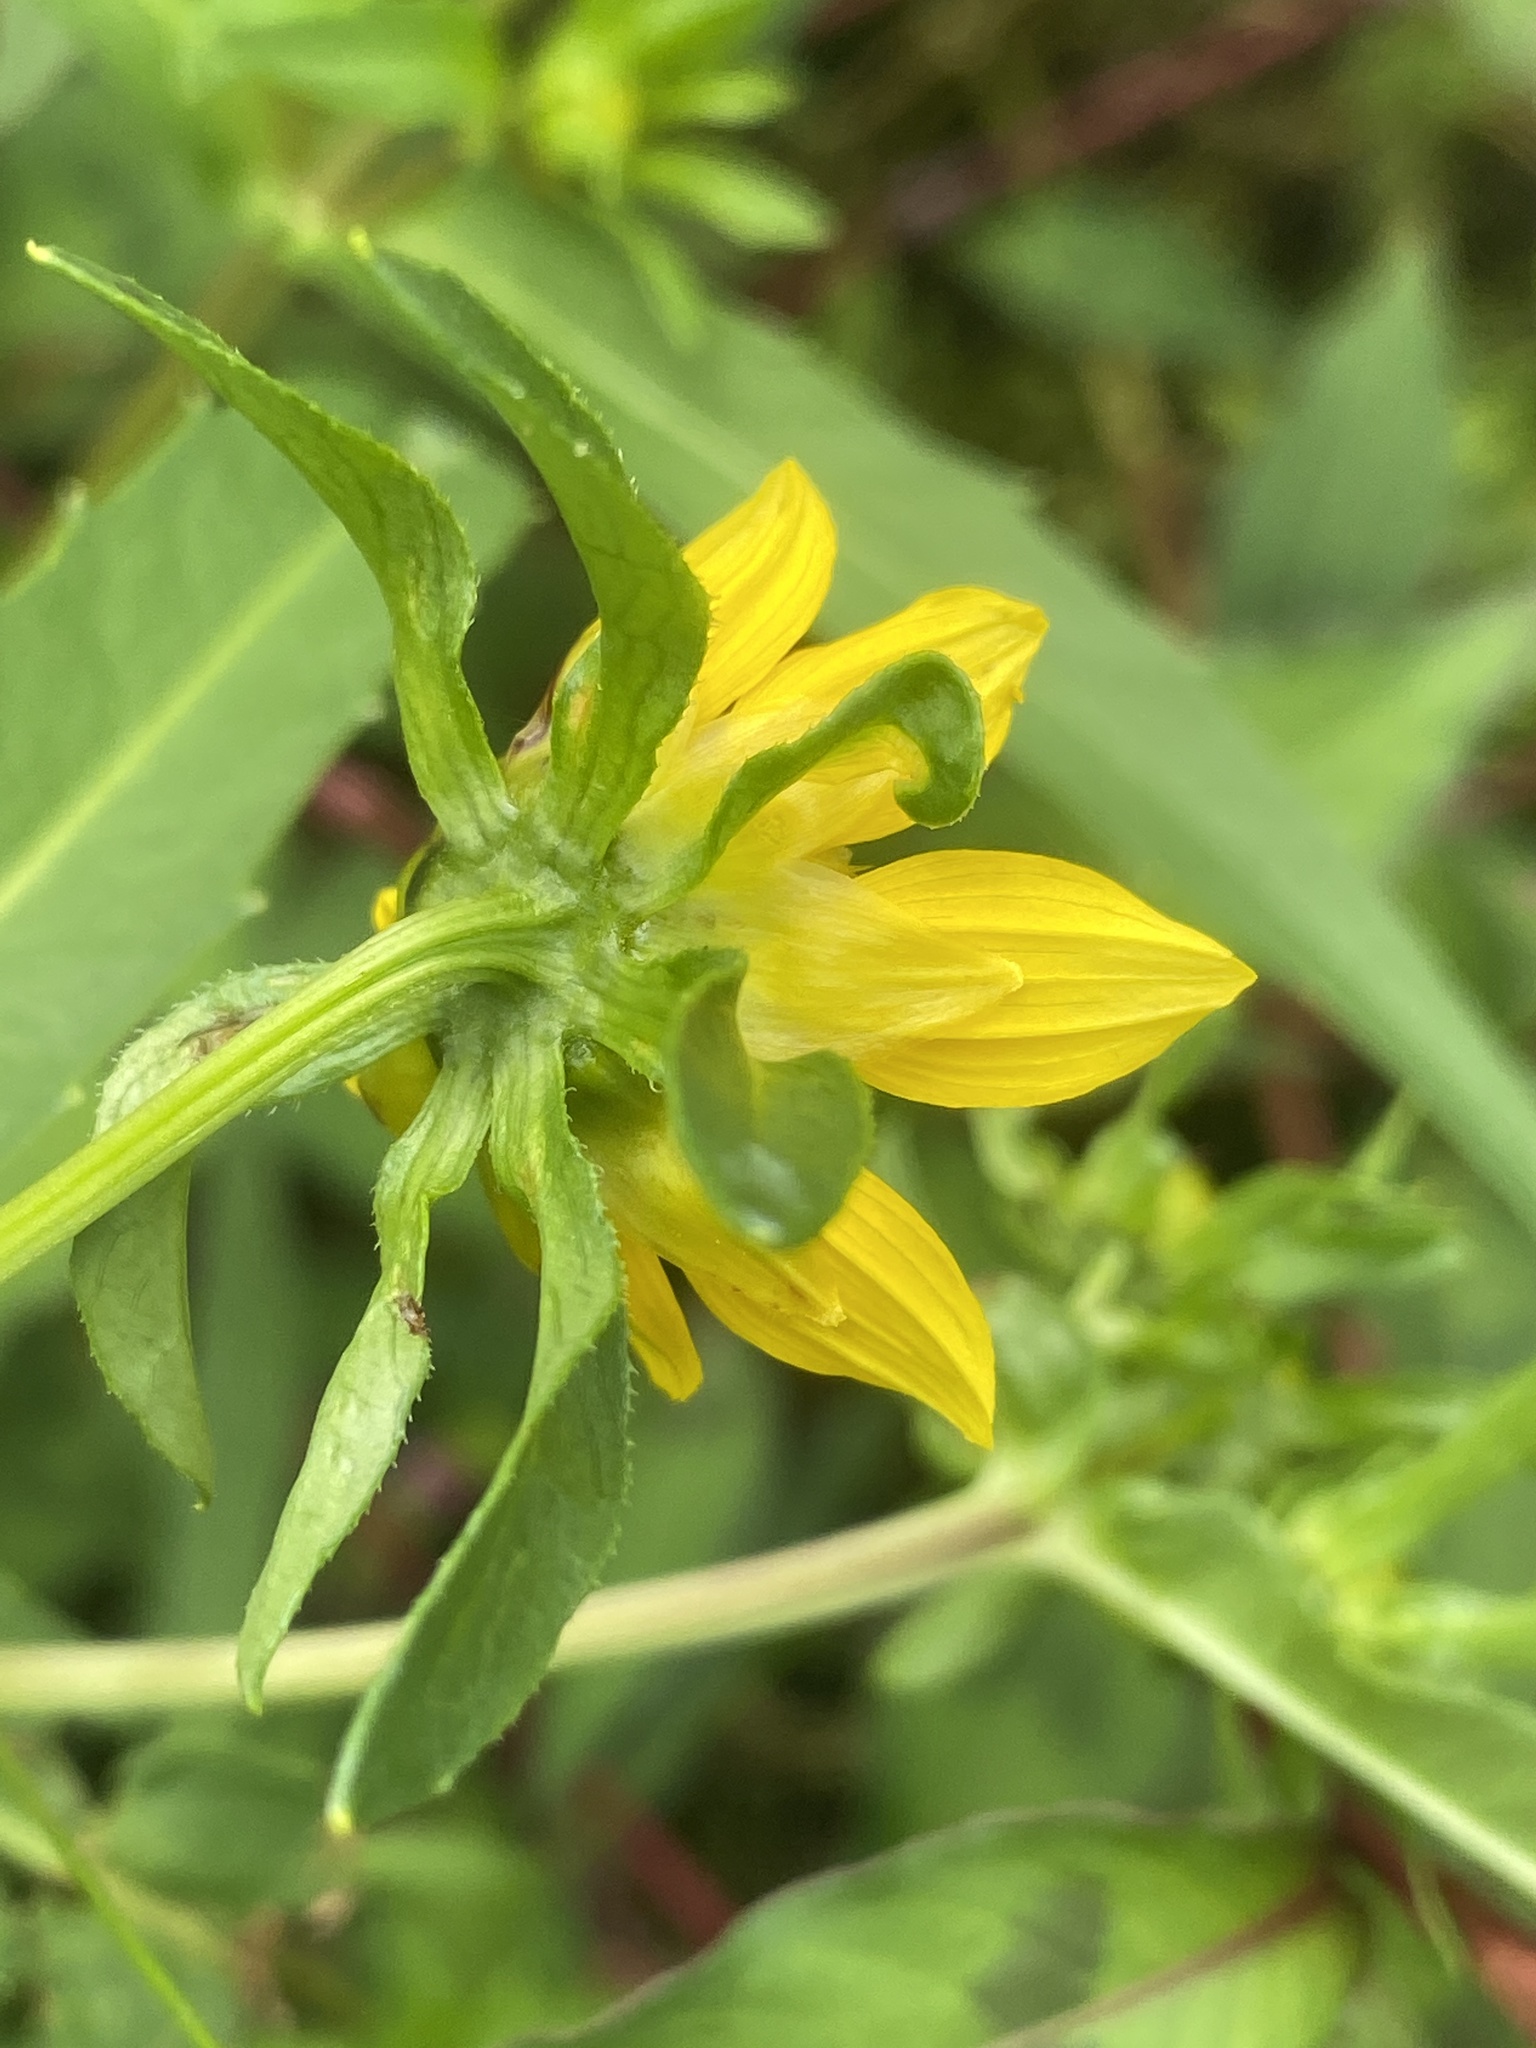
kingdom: Plantae
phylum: Tracheophyta
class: Magnoliopsida
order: Asterales
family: Asteraceae
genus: Bidens
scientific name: Bidens cernua
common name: Nodding bur-marigold
